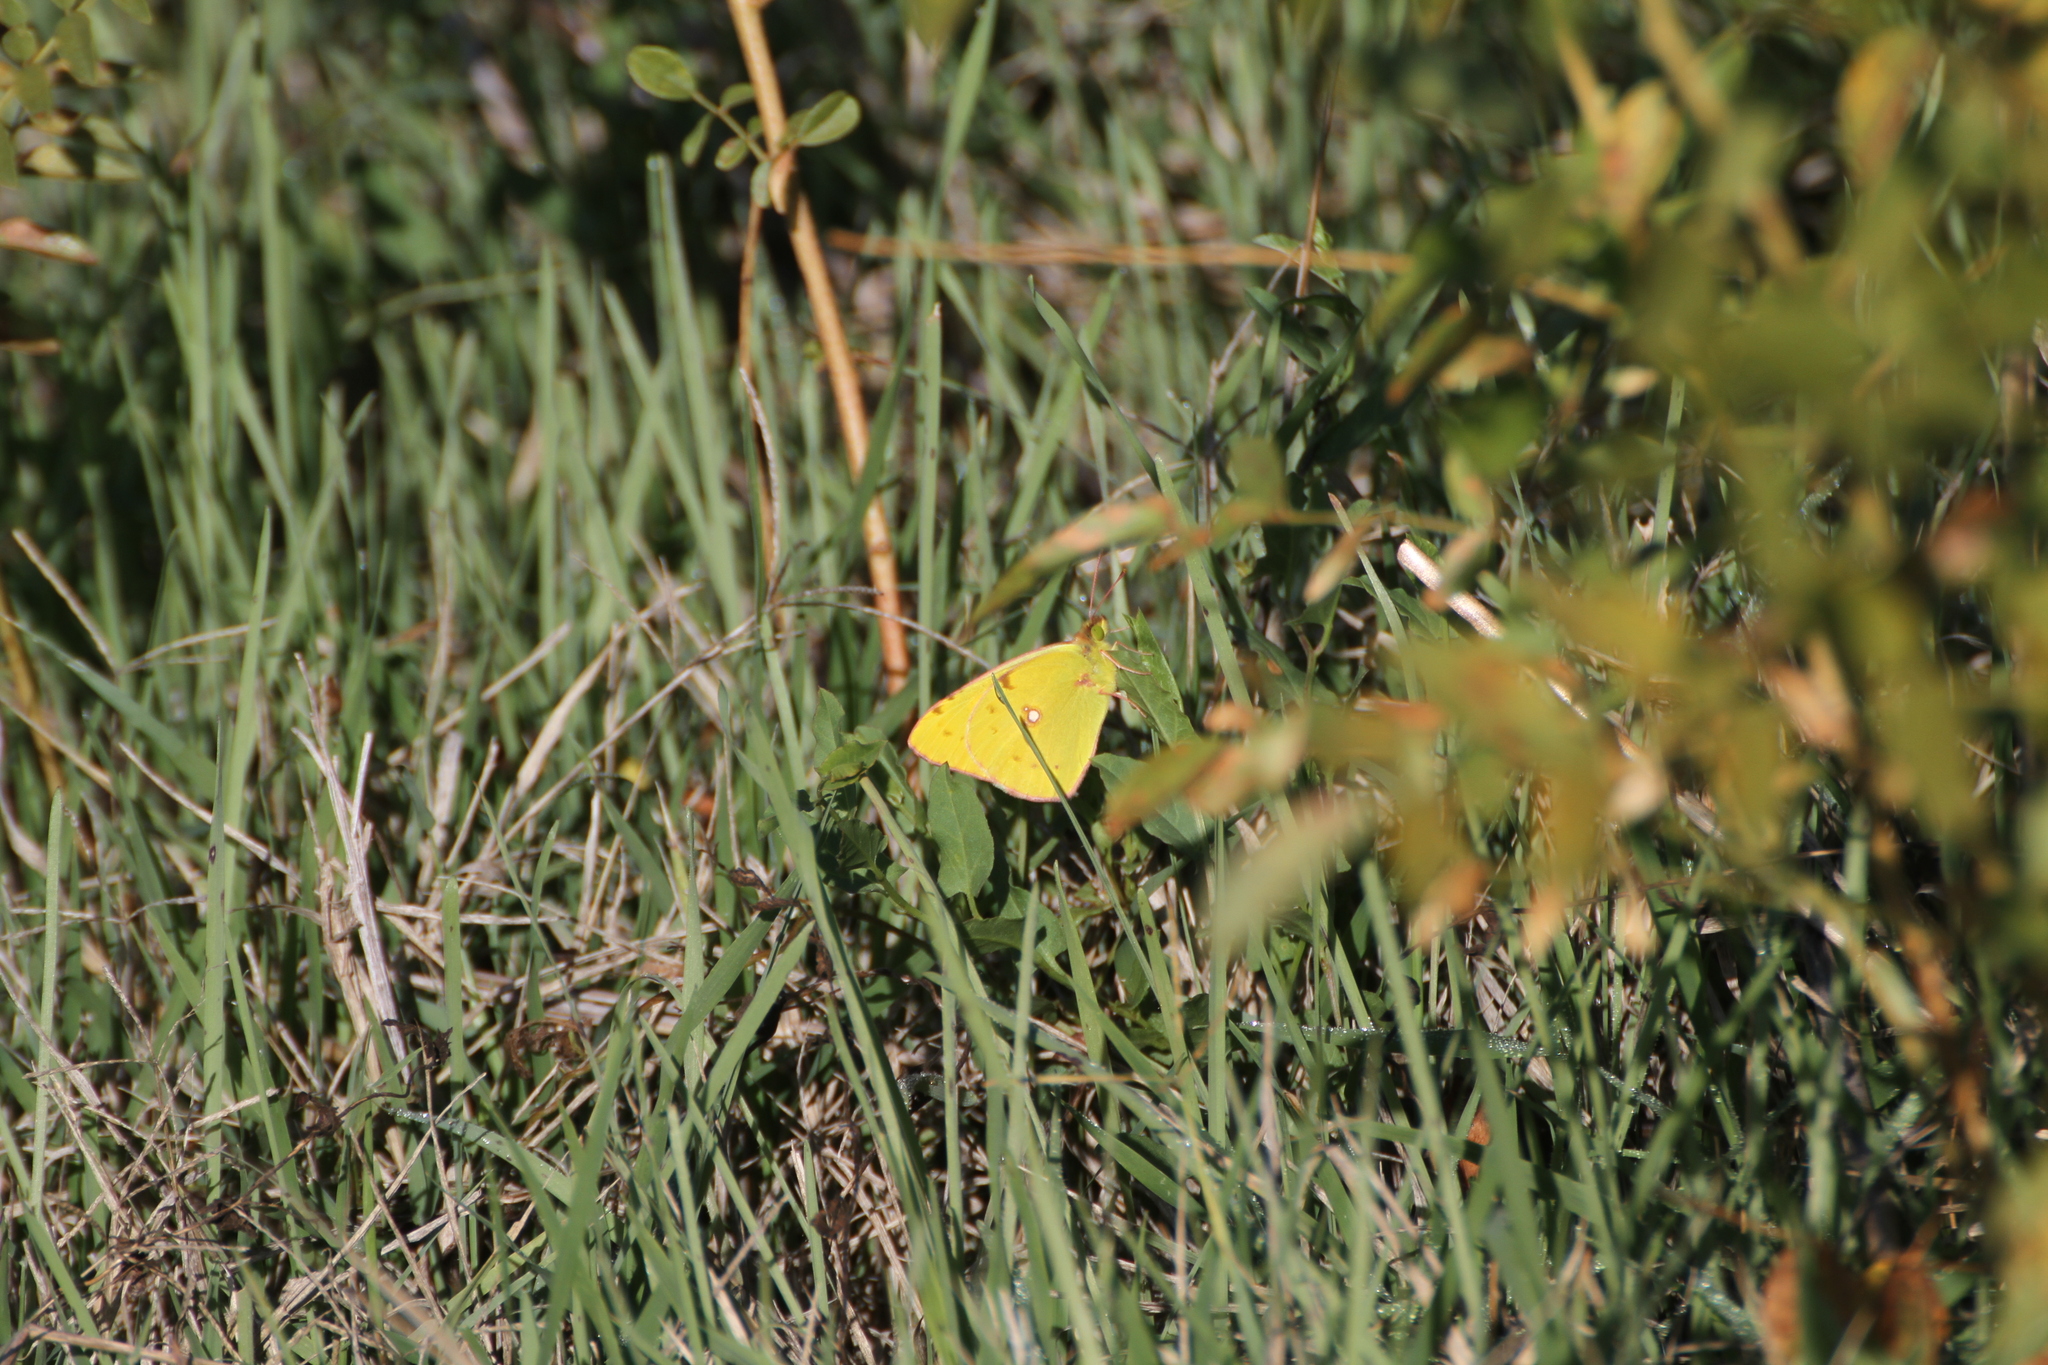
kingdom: Animalia
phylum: Arthropoda
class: Insecta
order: Lepidoptera
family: Pieridae
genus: Colias
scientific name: Colias croceus
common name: Clouded yellow
